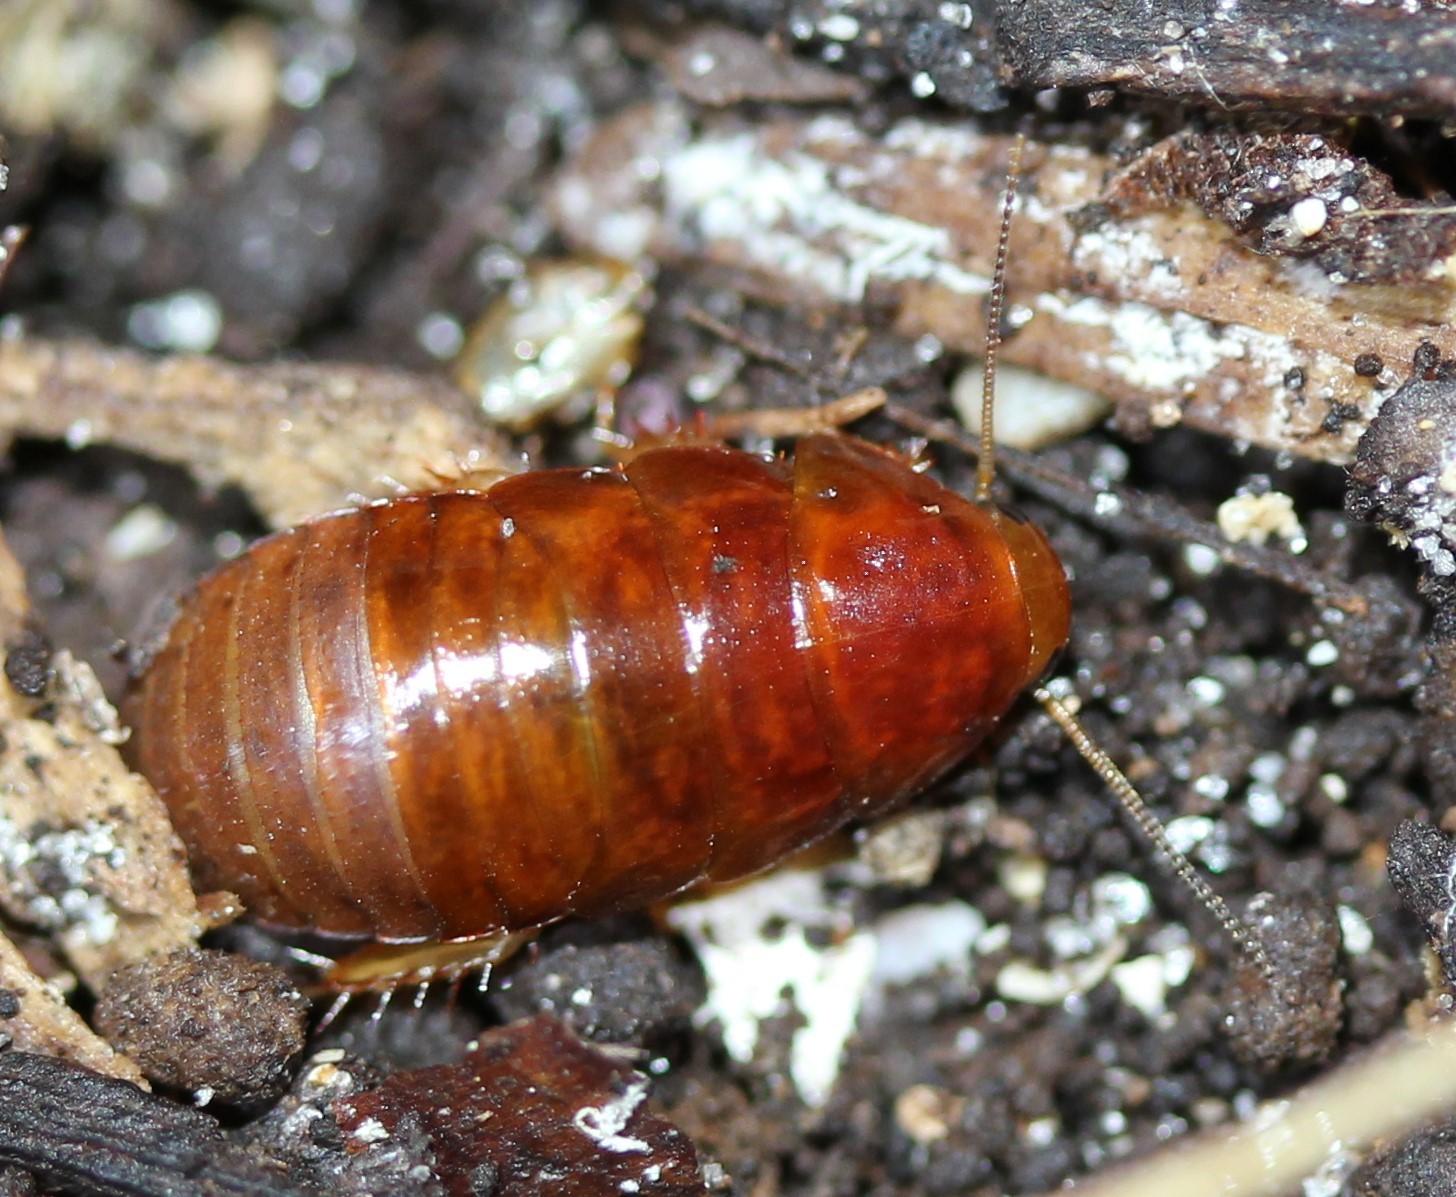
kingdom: Animalia
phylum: Arthropoda
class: Insecta
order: Blattodea
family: Blaberidae
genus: Pycnoscelus
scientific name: Pycnoscelus surinamensis
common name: Surinam cockroach
